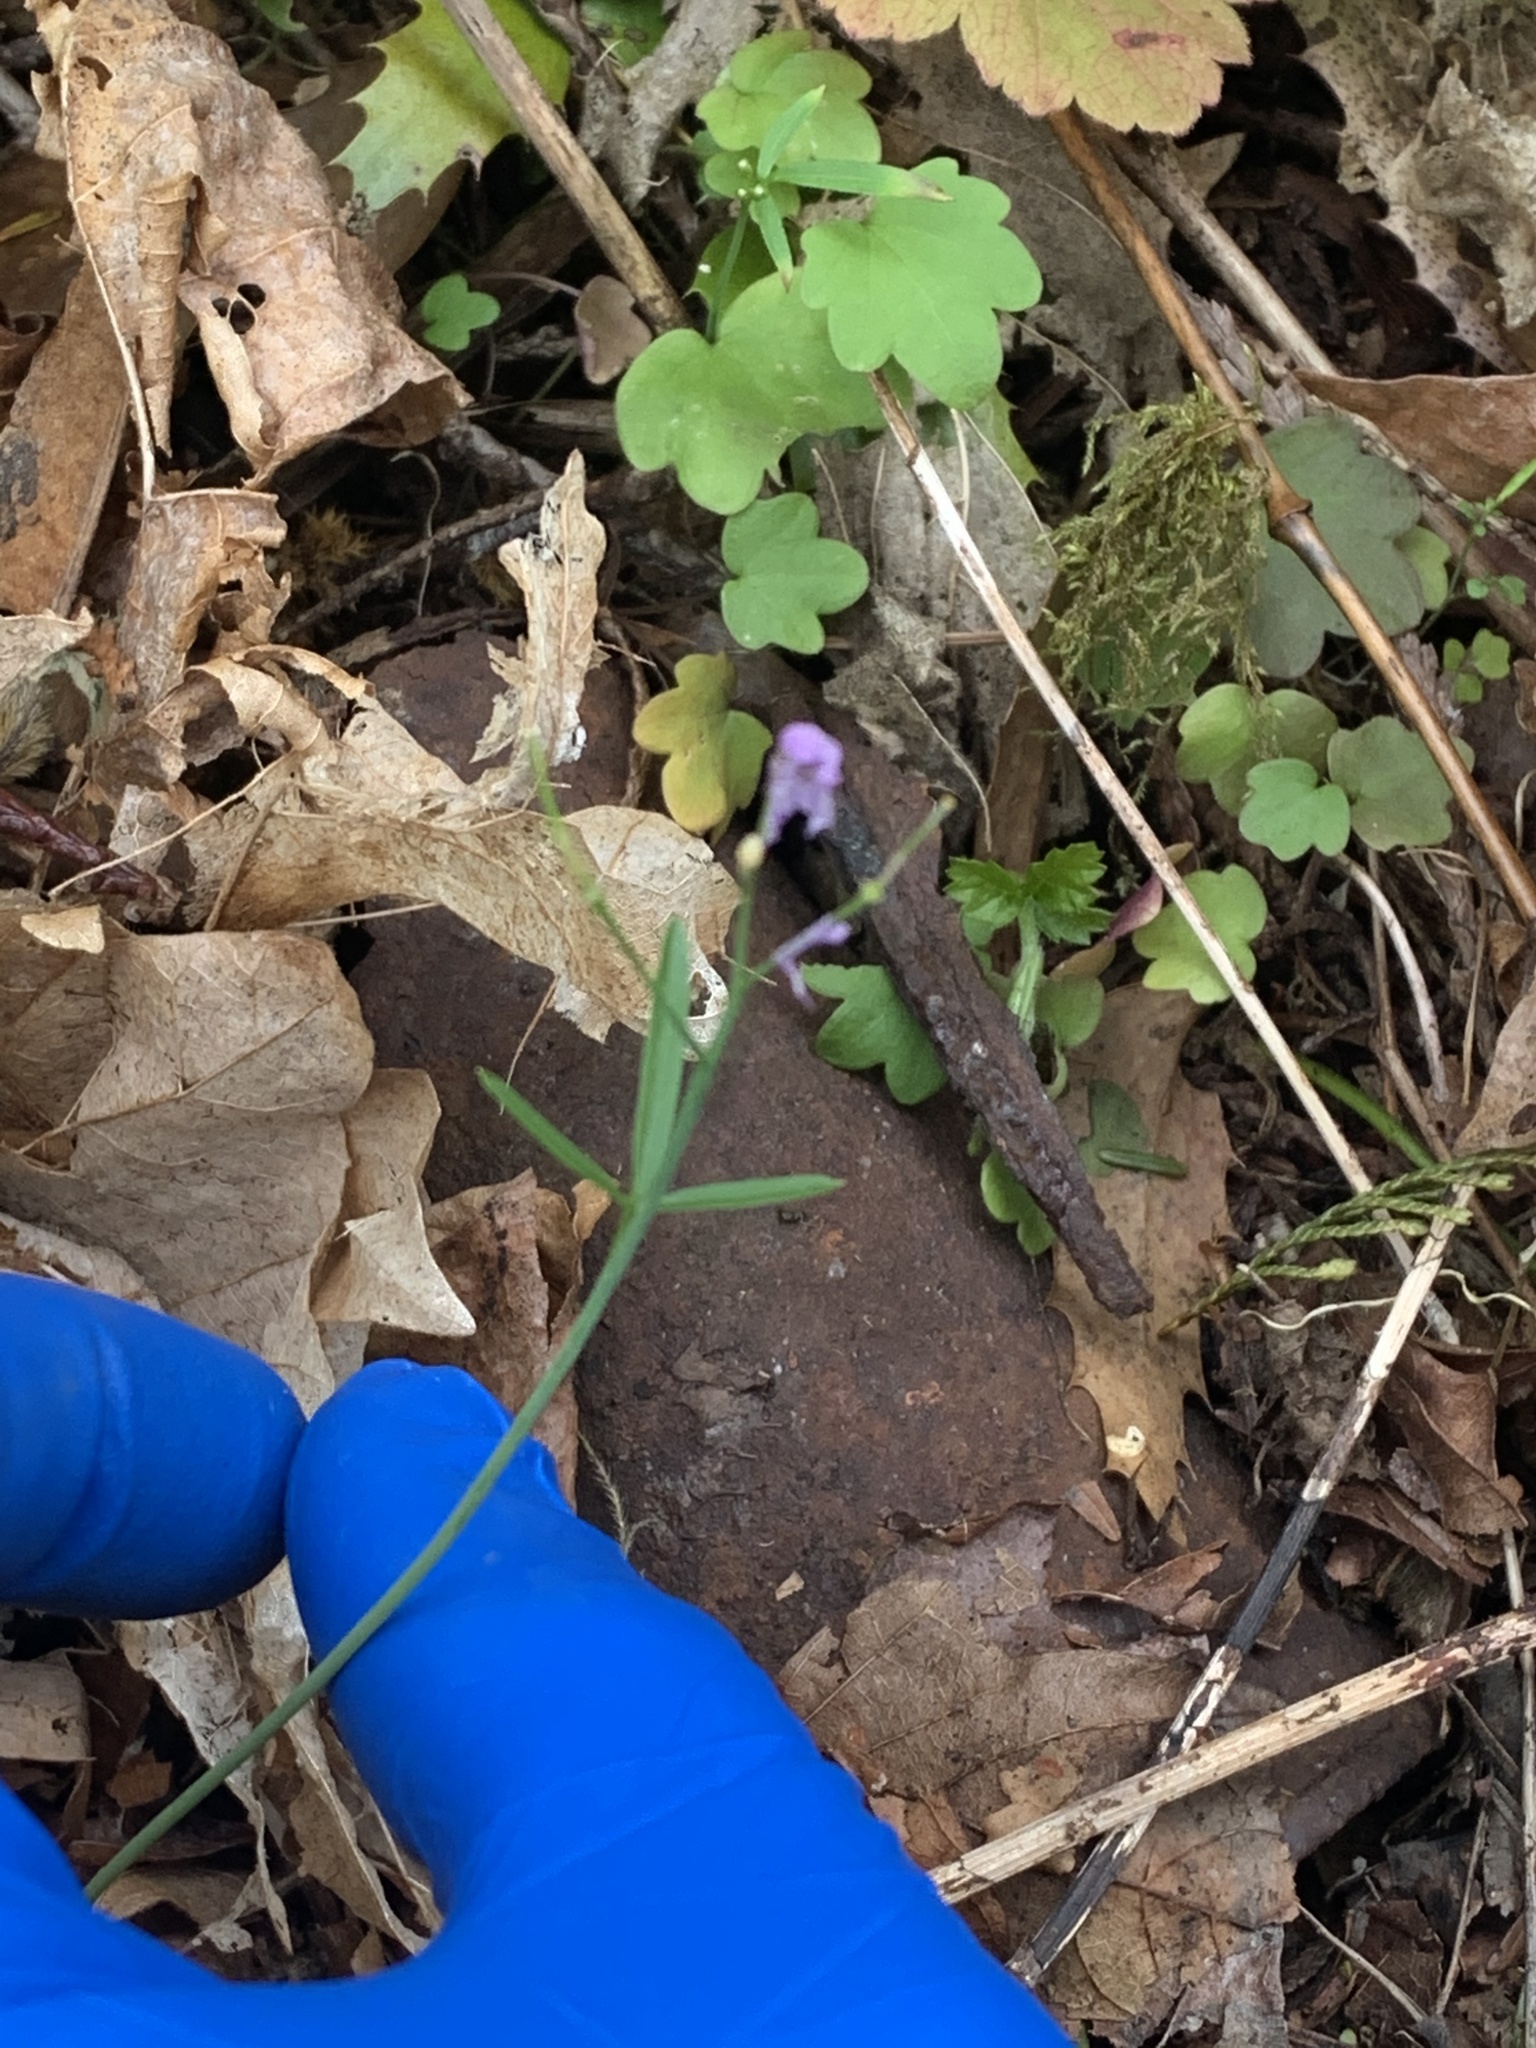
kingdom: Plantae
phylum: Tracheophyta
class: Magnoliopsida
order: Brassicales
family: Brassicaceae
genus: Cardamine
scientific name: Cardamine nuttallii
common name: Nuttall's toothwort
